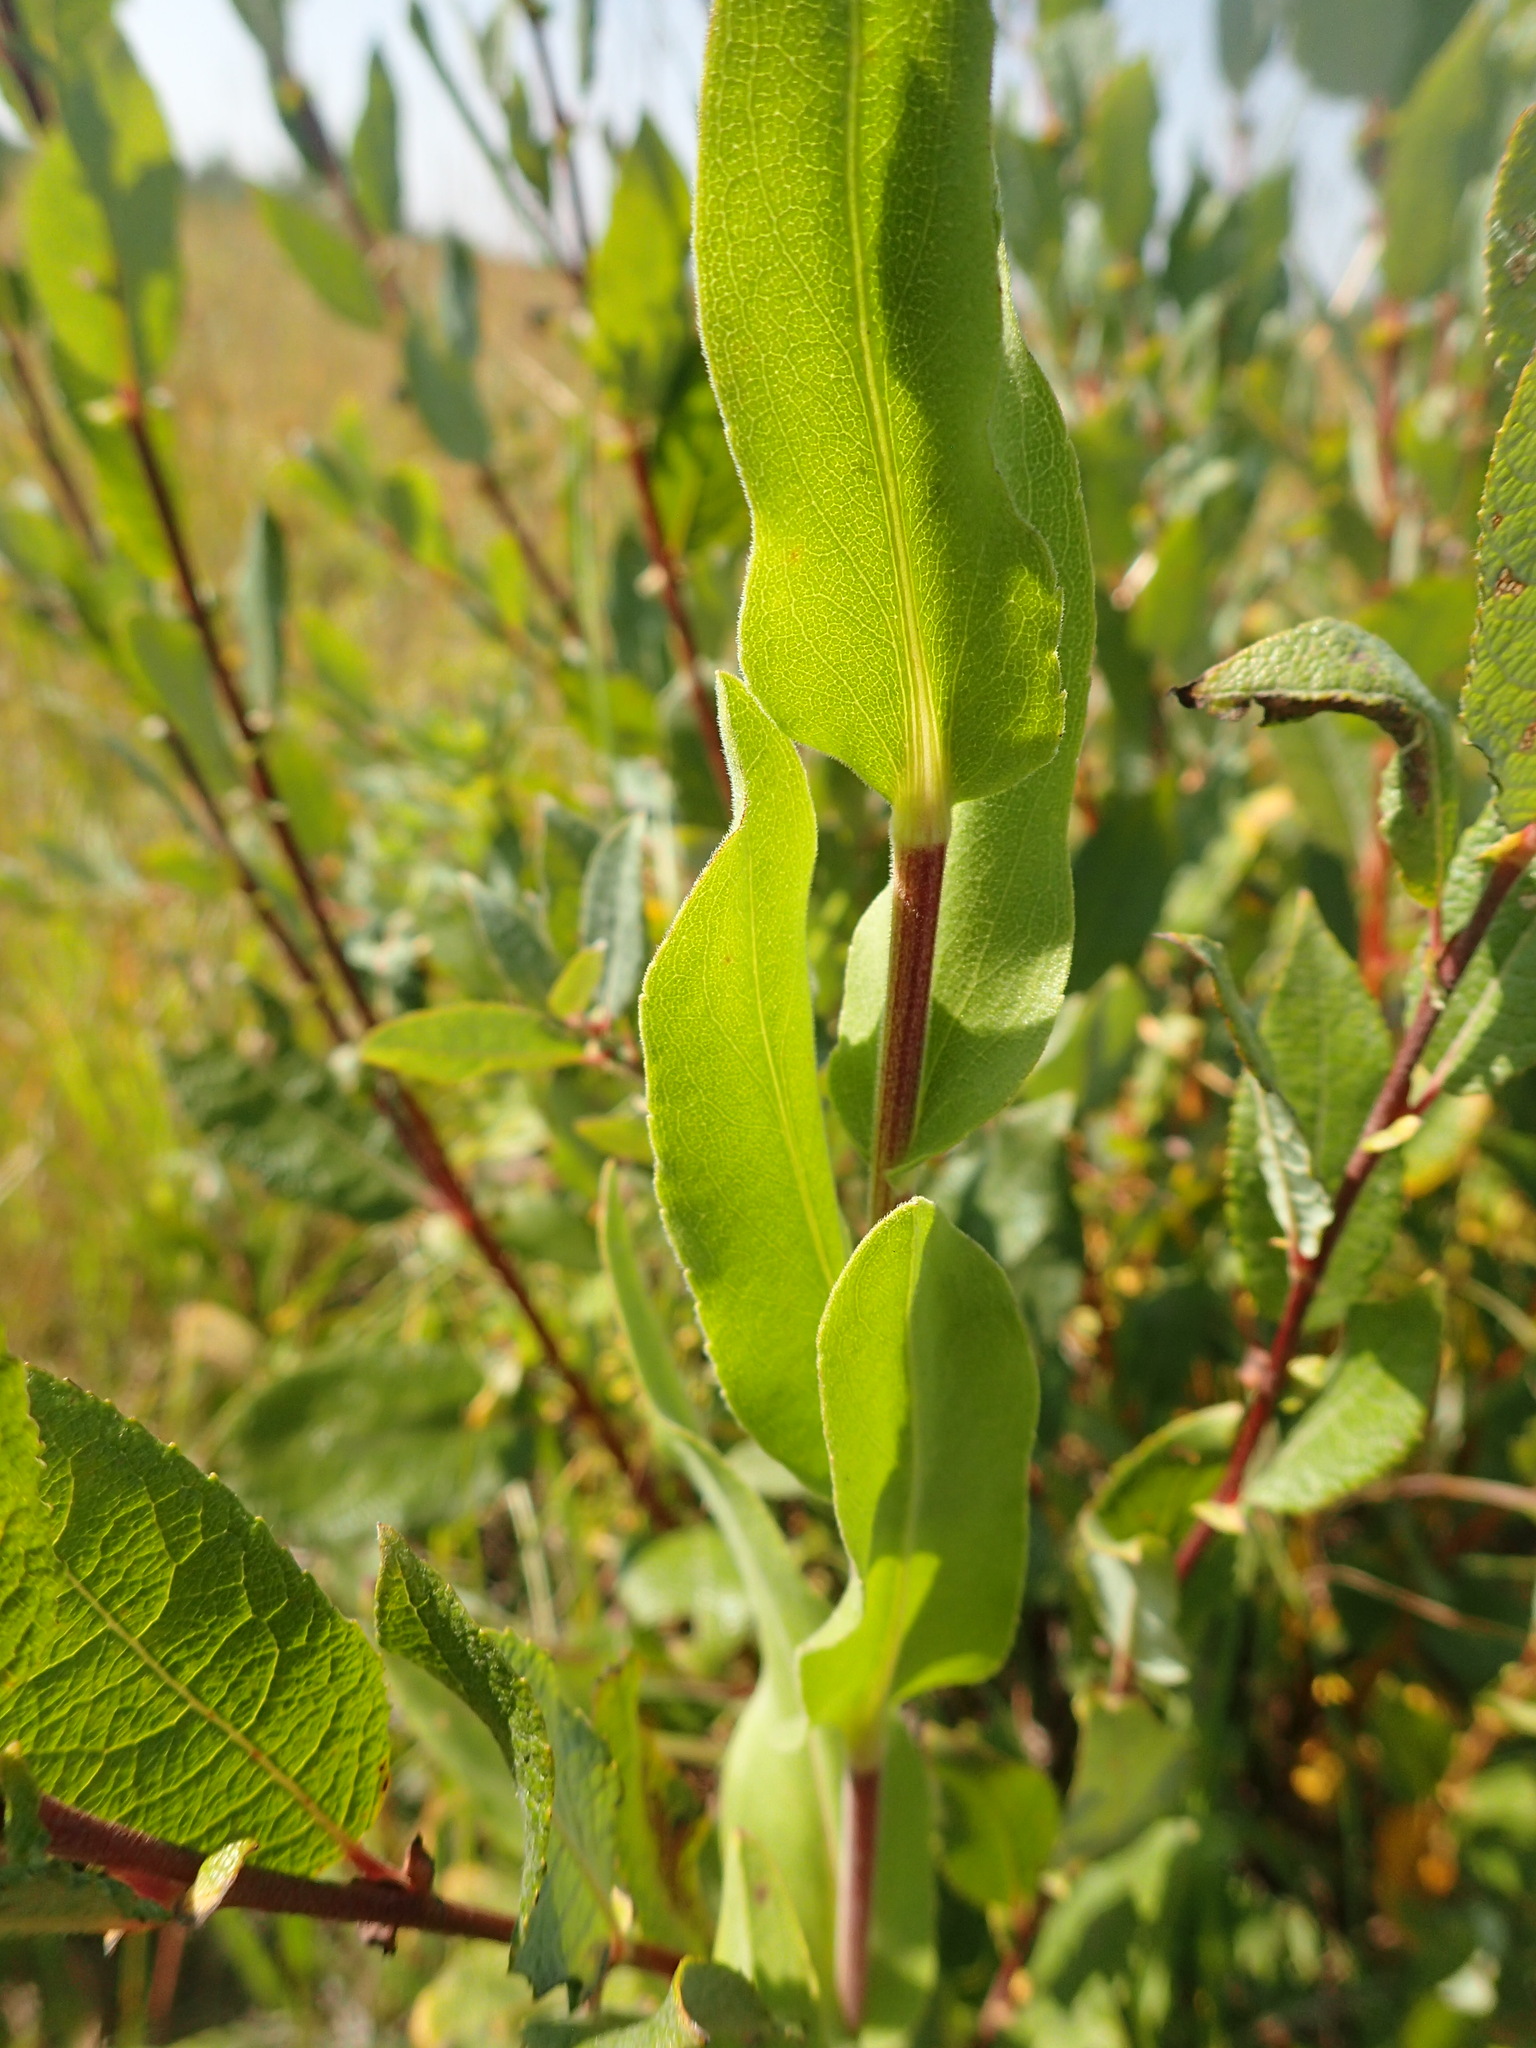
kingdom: Plantae
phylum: Tracheophyta
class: Magnoliopsida
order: Asterales
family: Asteraceae
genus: Solidago
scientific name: Solidago rigida
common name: Rigid goldenrod
